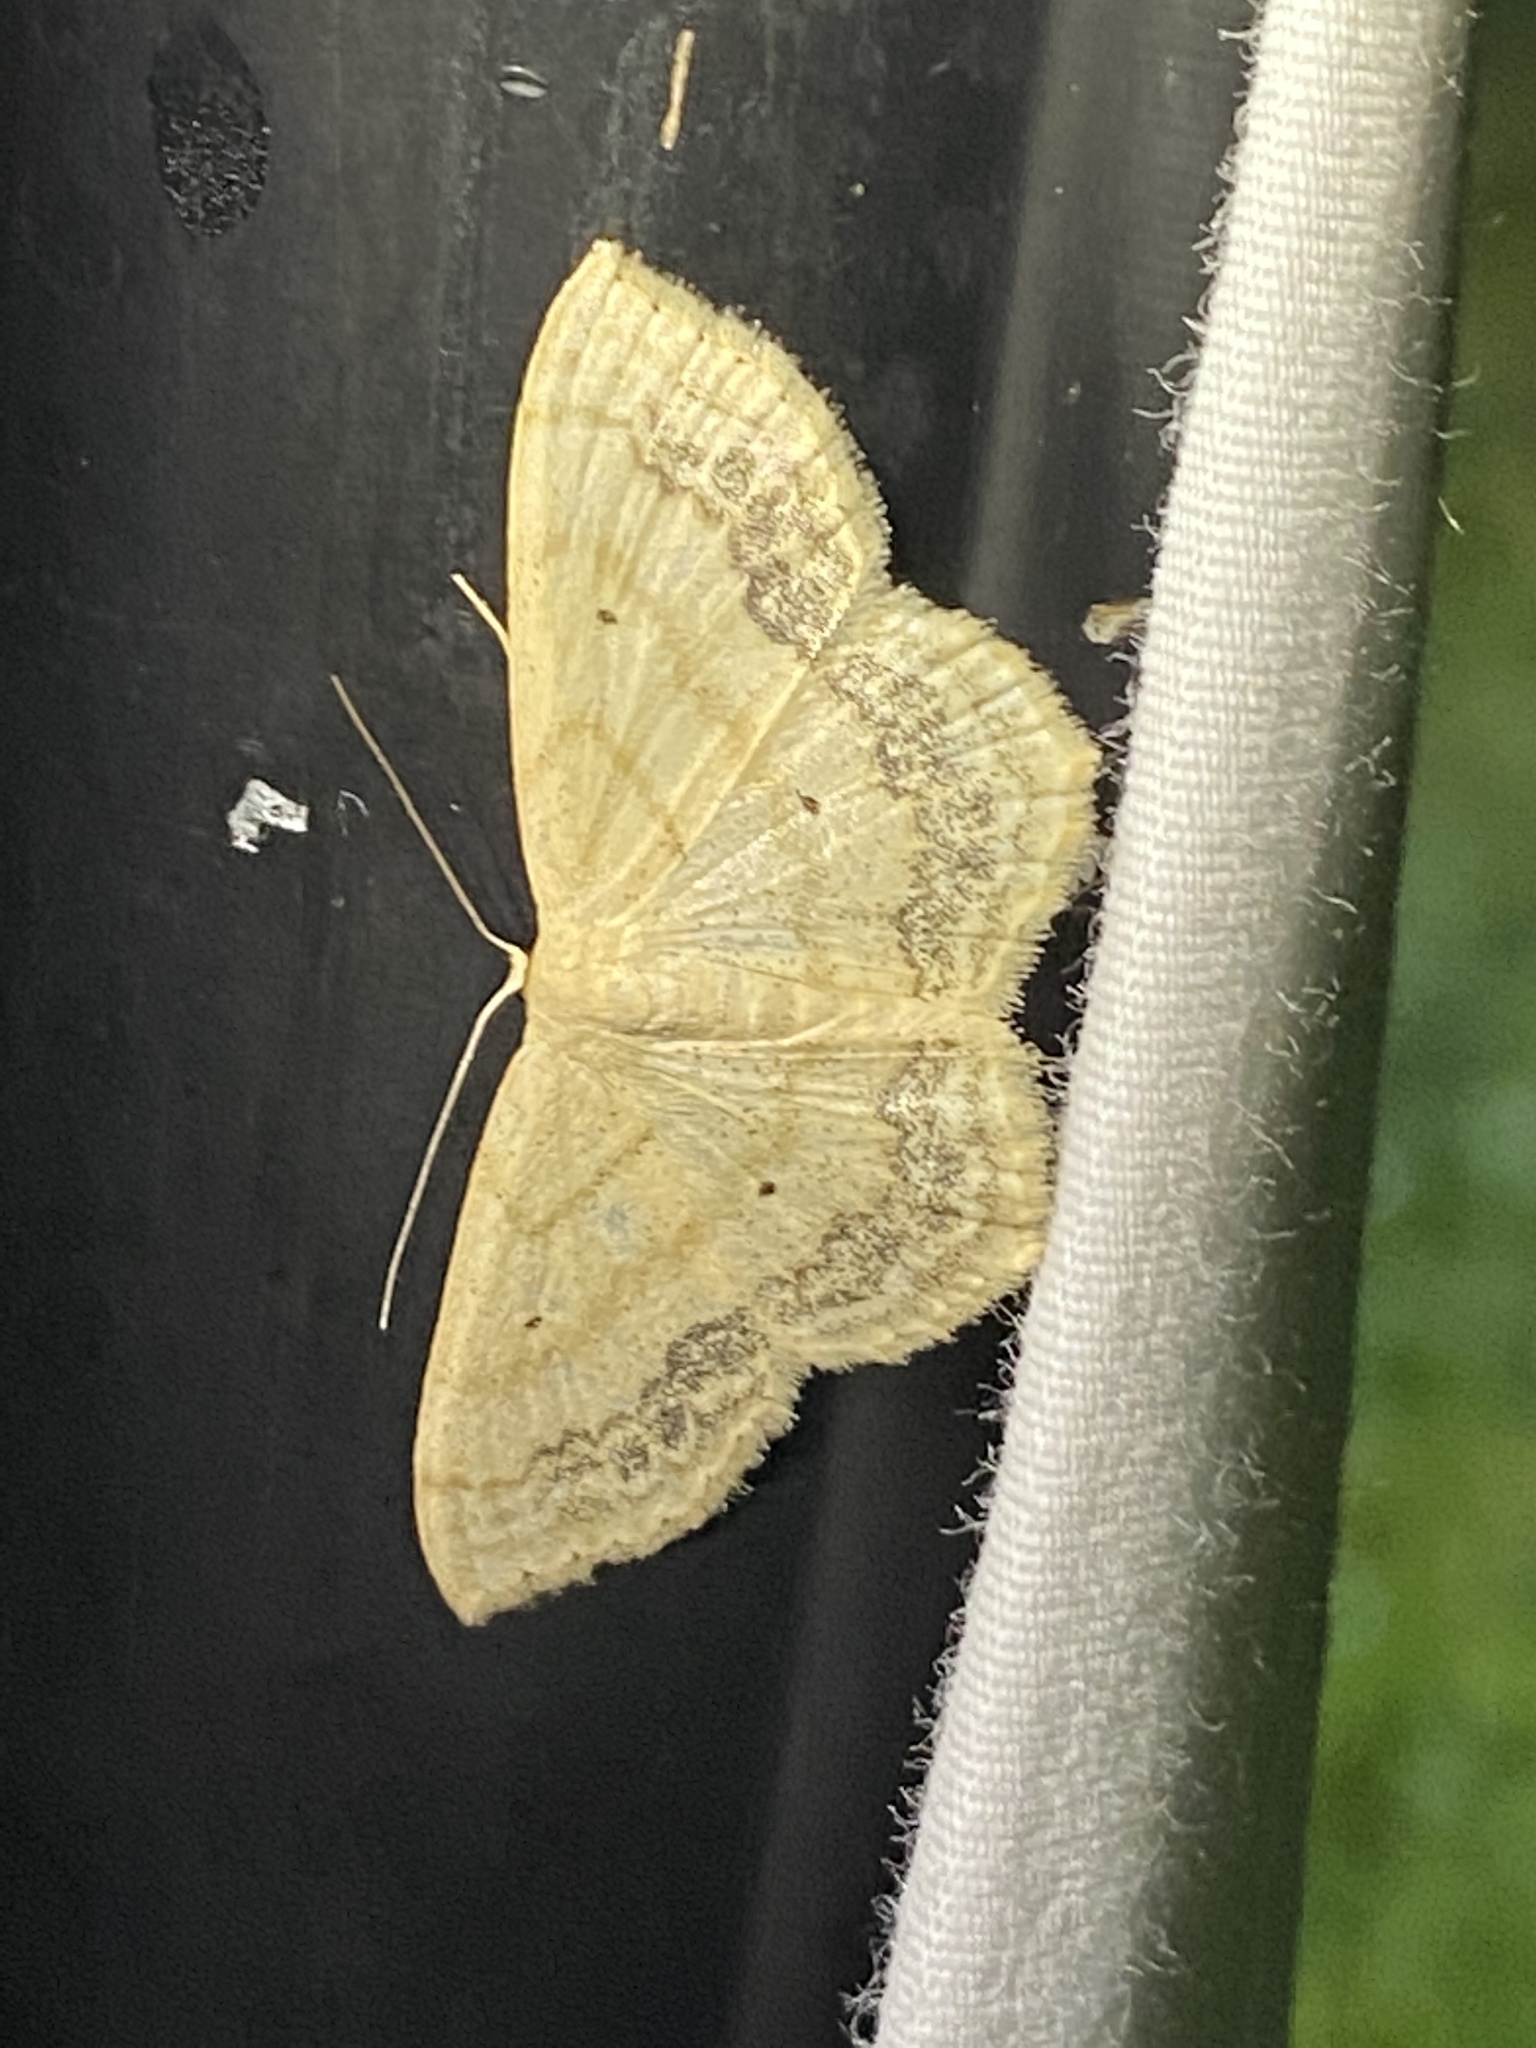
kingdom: Animalia
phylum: Arthropoda
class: Insecta
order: Lepidoptera
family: Geometridae
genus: Scopula
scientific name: Scopula limboundata
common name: Large lace border
